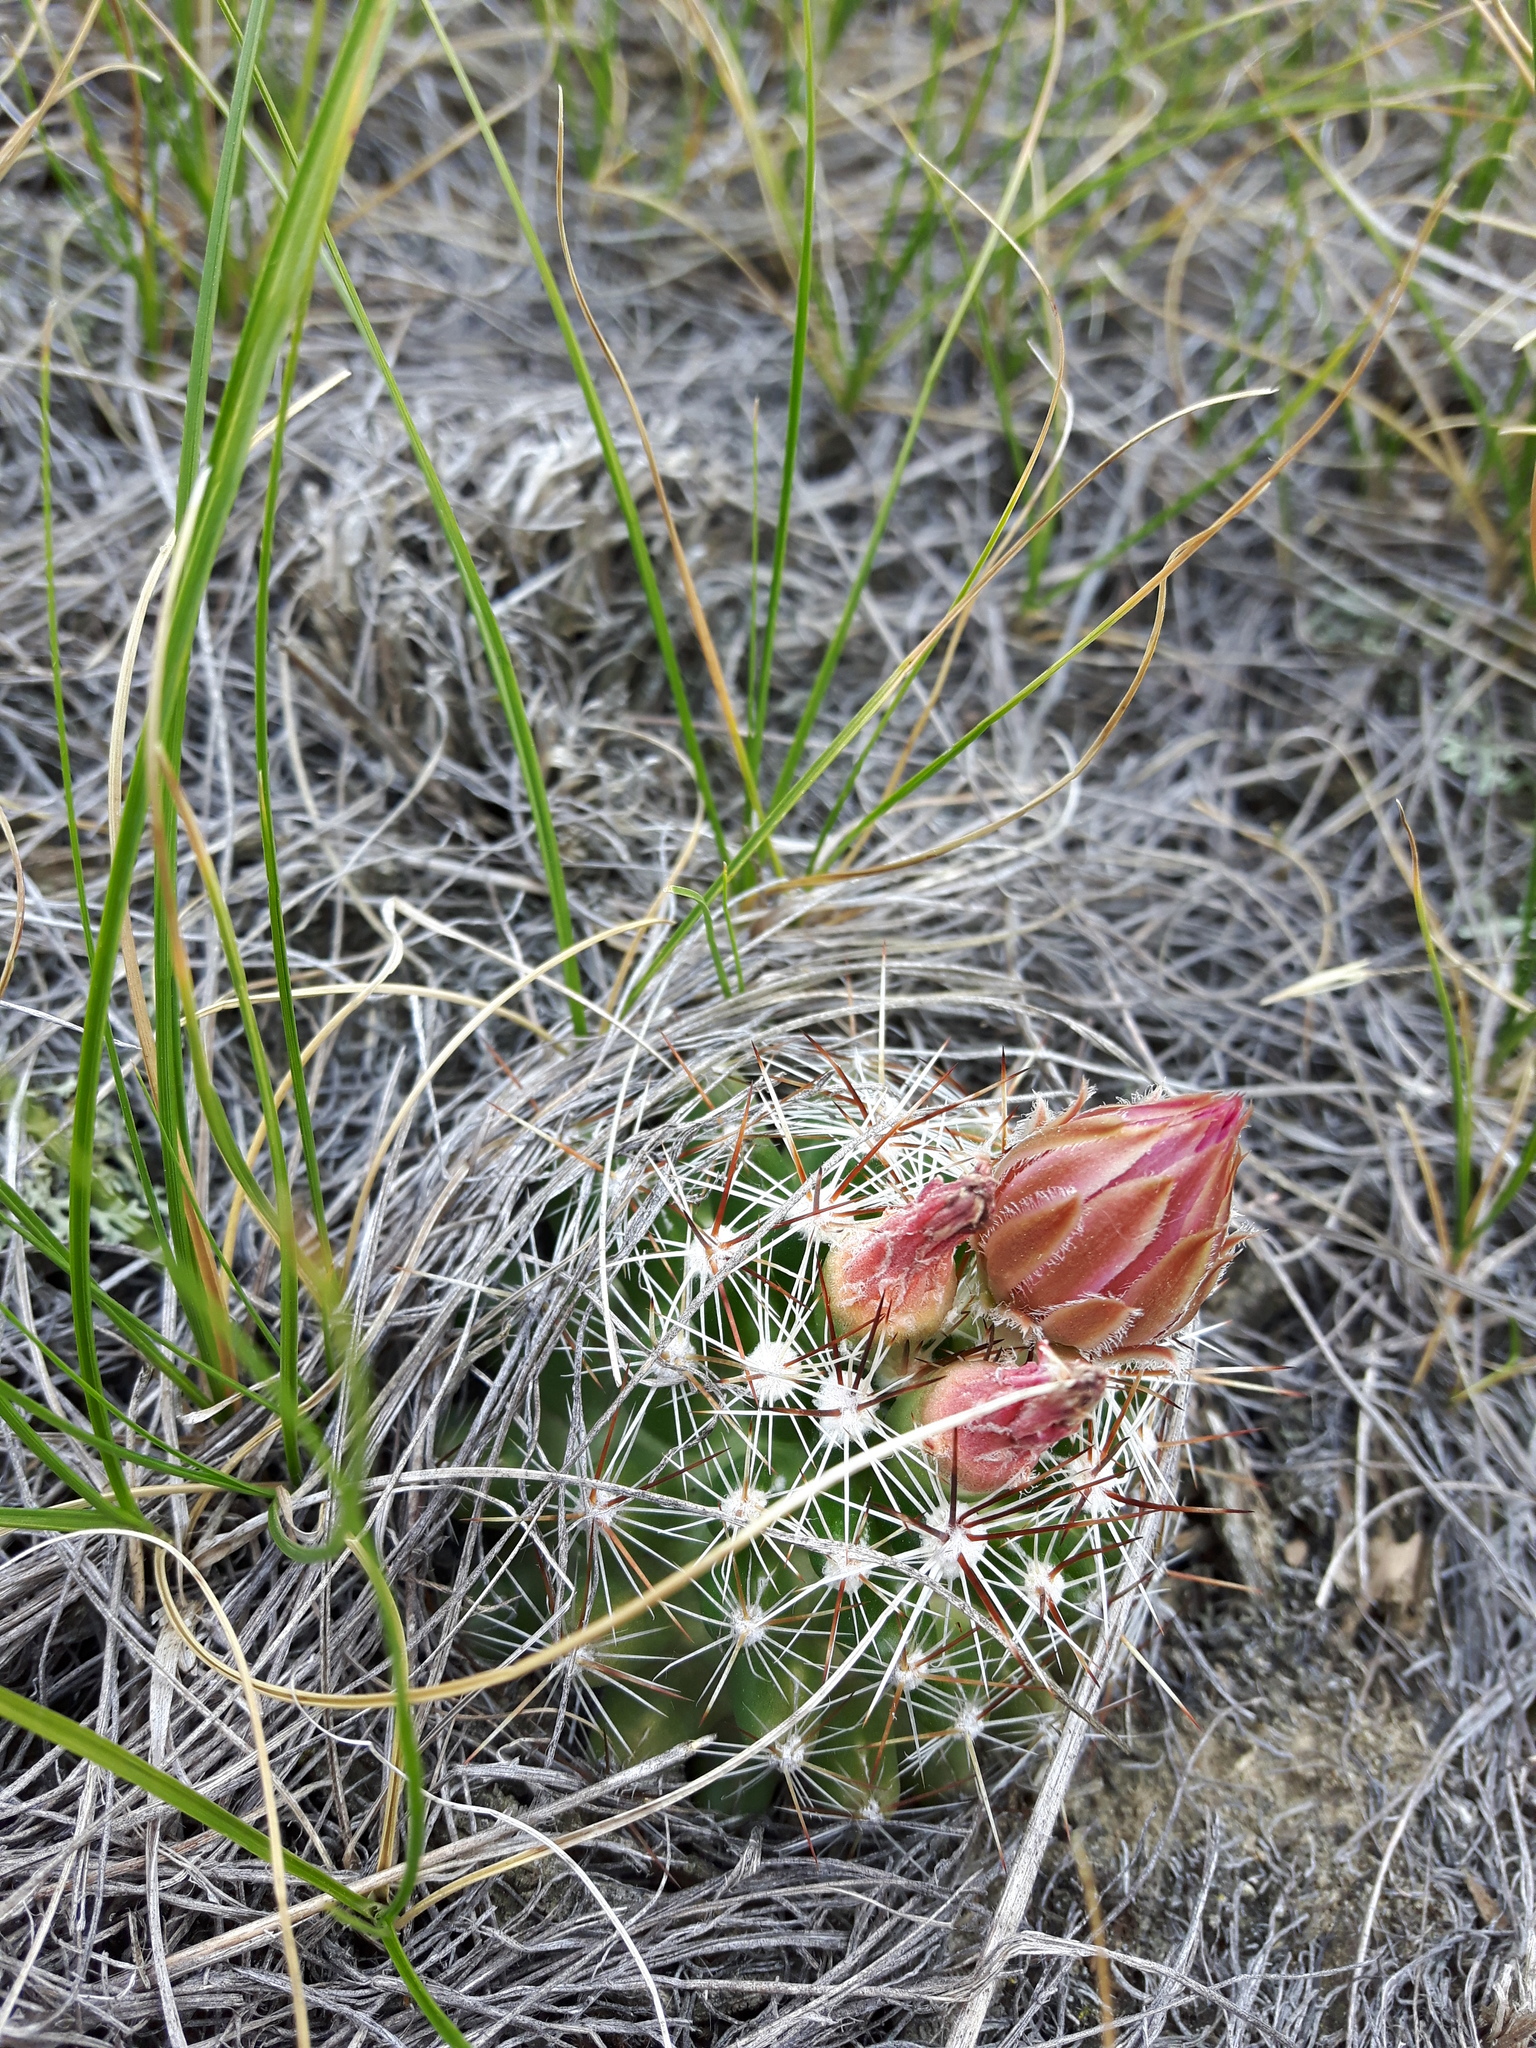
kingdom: Plantae
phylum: Tracheophyta
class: Magnoliopsida
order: Caryophyllales
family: Cactaceae
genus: Pelecyphora
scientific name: Pelecyphora vivipara
